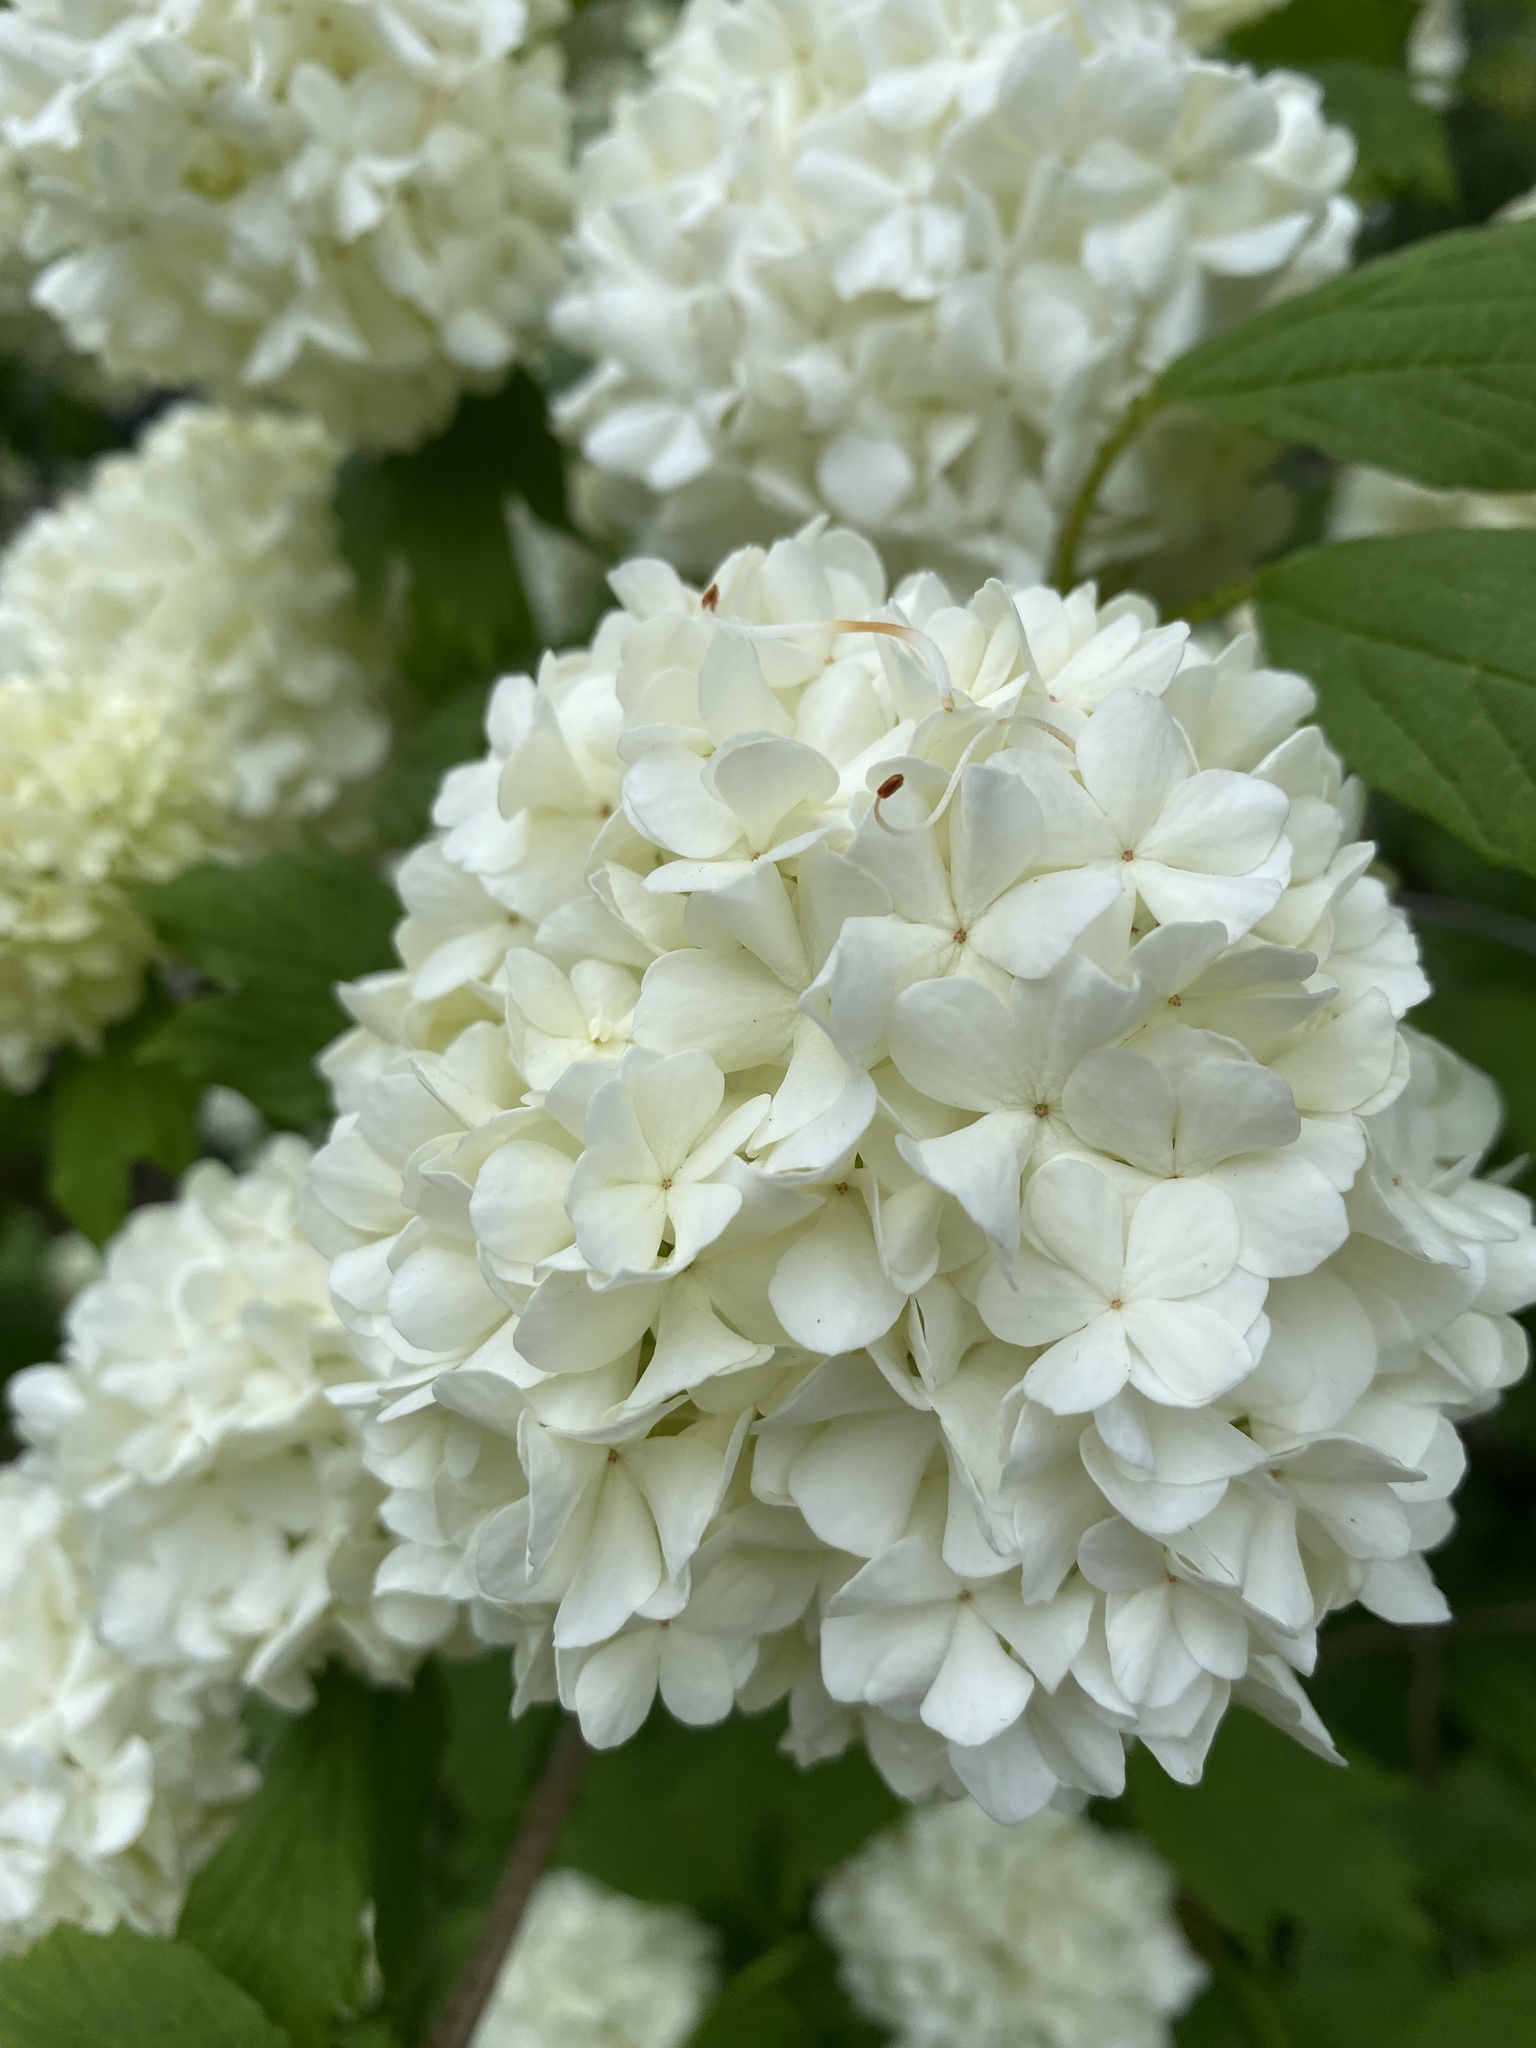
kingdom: Plantae
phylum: Tracheophyta
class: Magnoliopsida
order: Dipsacales
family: Viburnaceae
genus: Viburnum
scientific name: Viburnum opulus
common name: Guelder-rose
